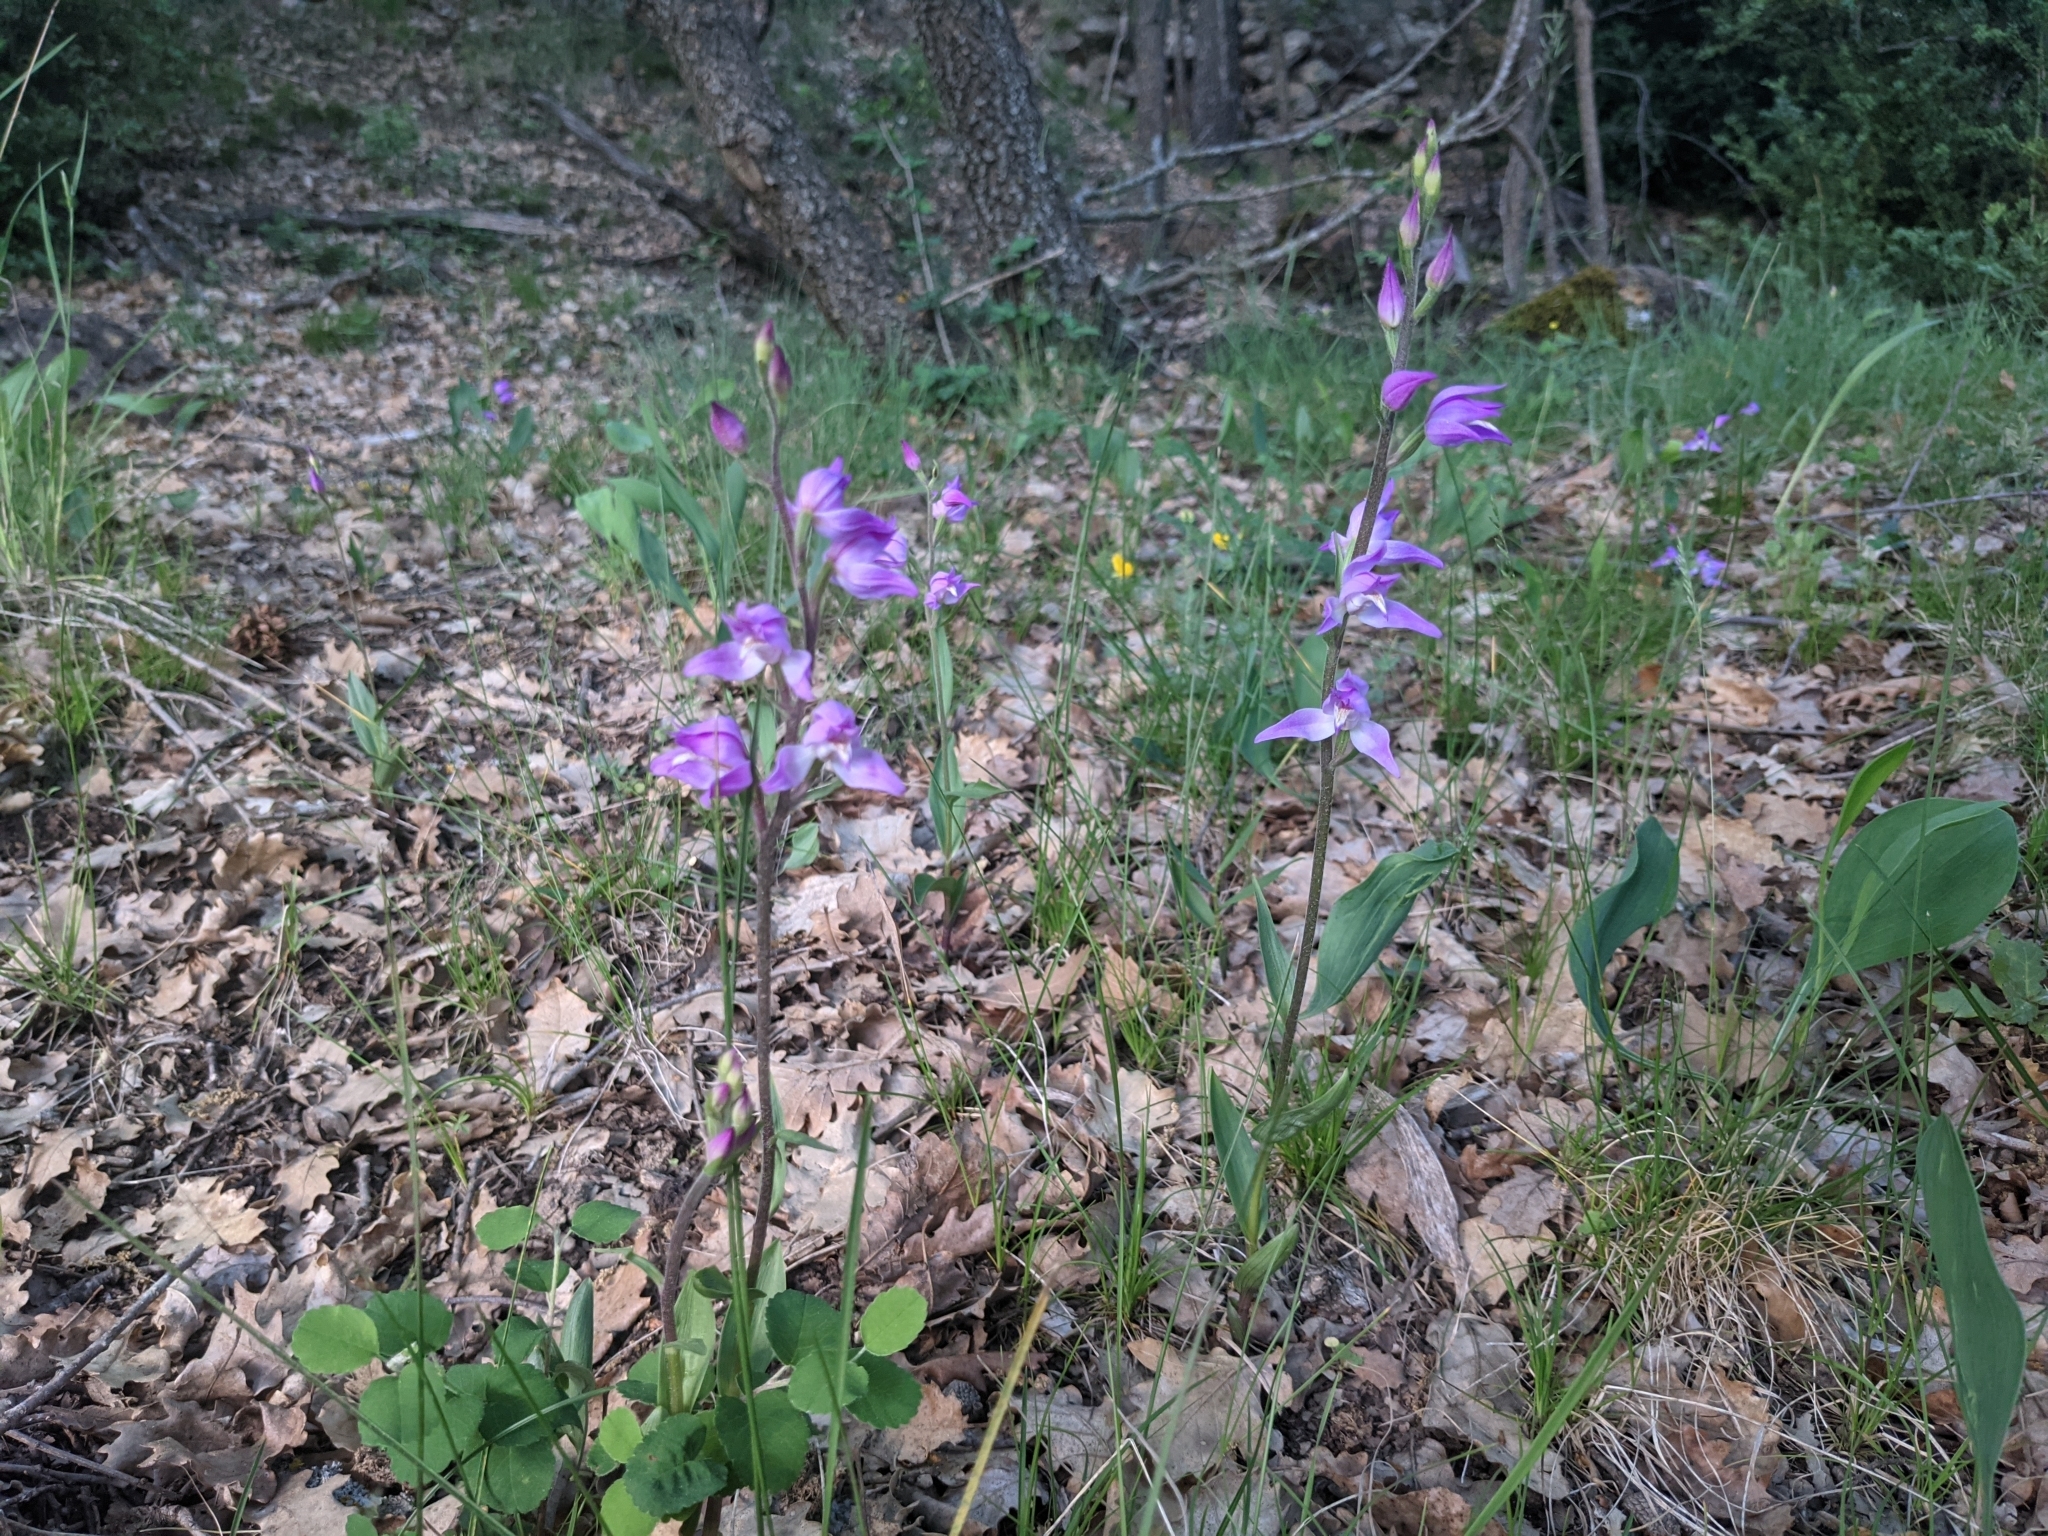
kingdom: Plantae
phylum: Tracheophyta
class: Liliopsida
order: Asparagales
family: Orchidaceae
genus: Cephalanthera
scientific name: Cephalanthera rubra
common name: Red helleborine
